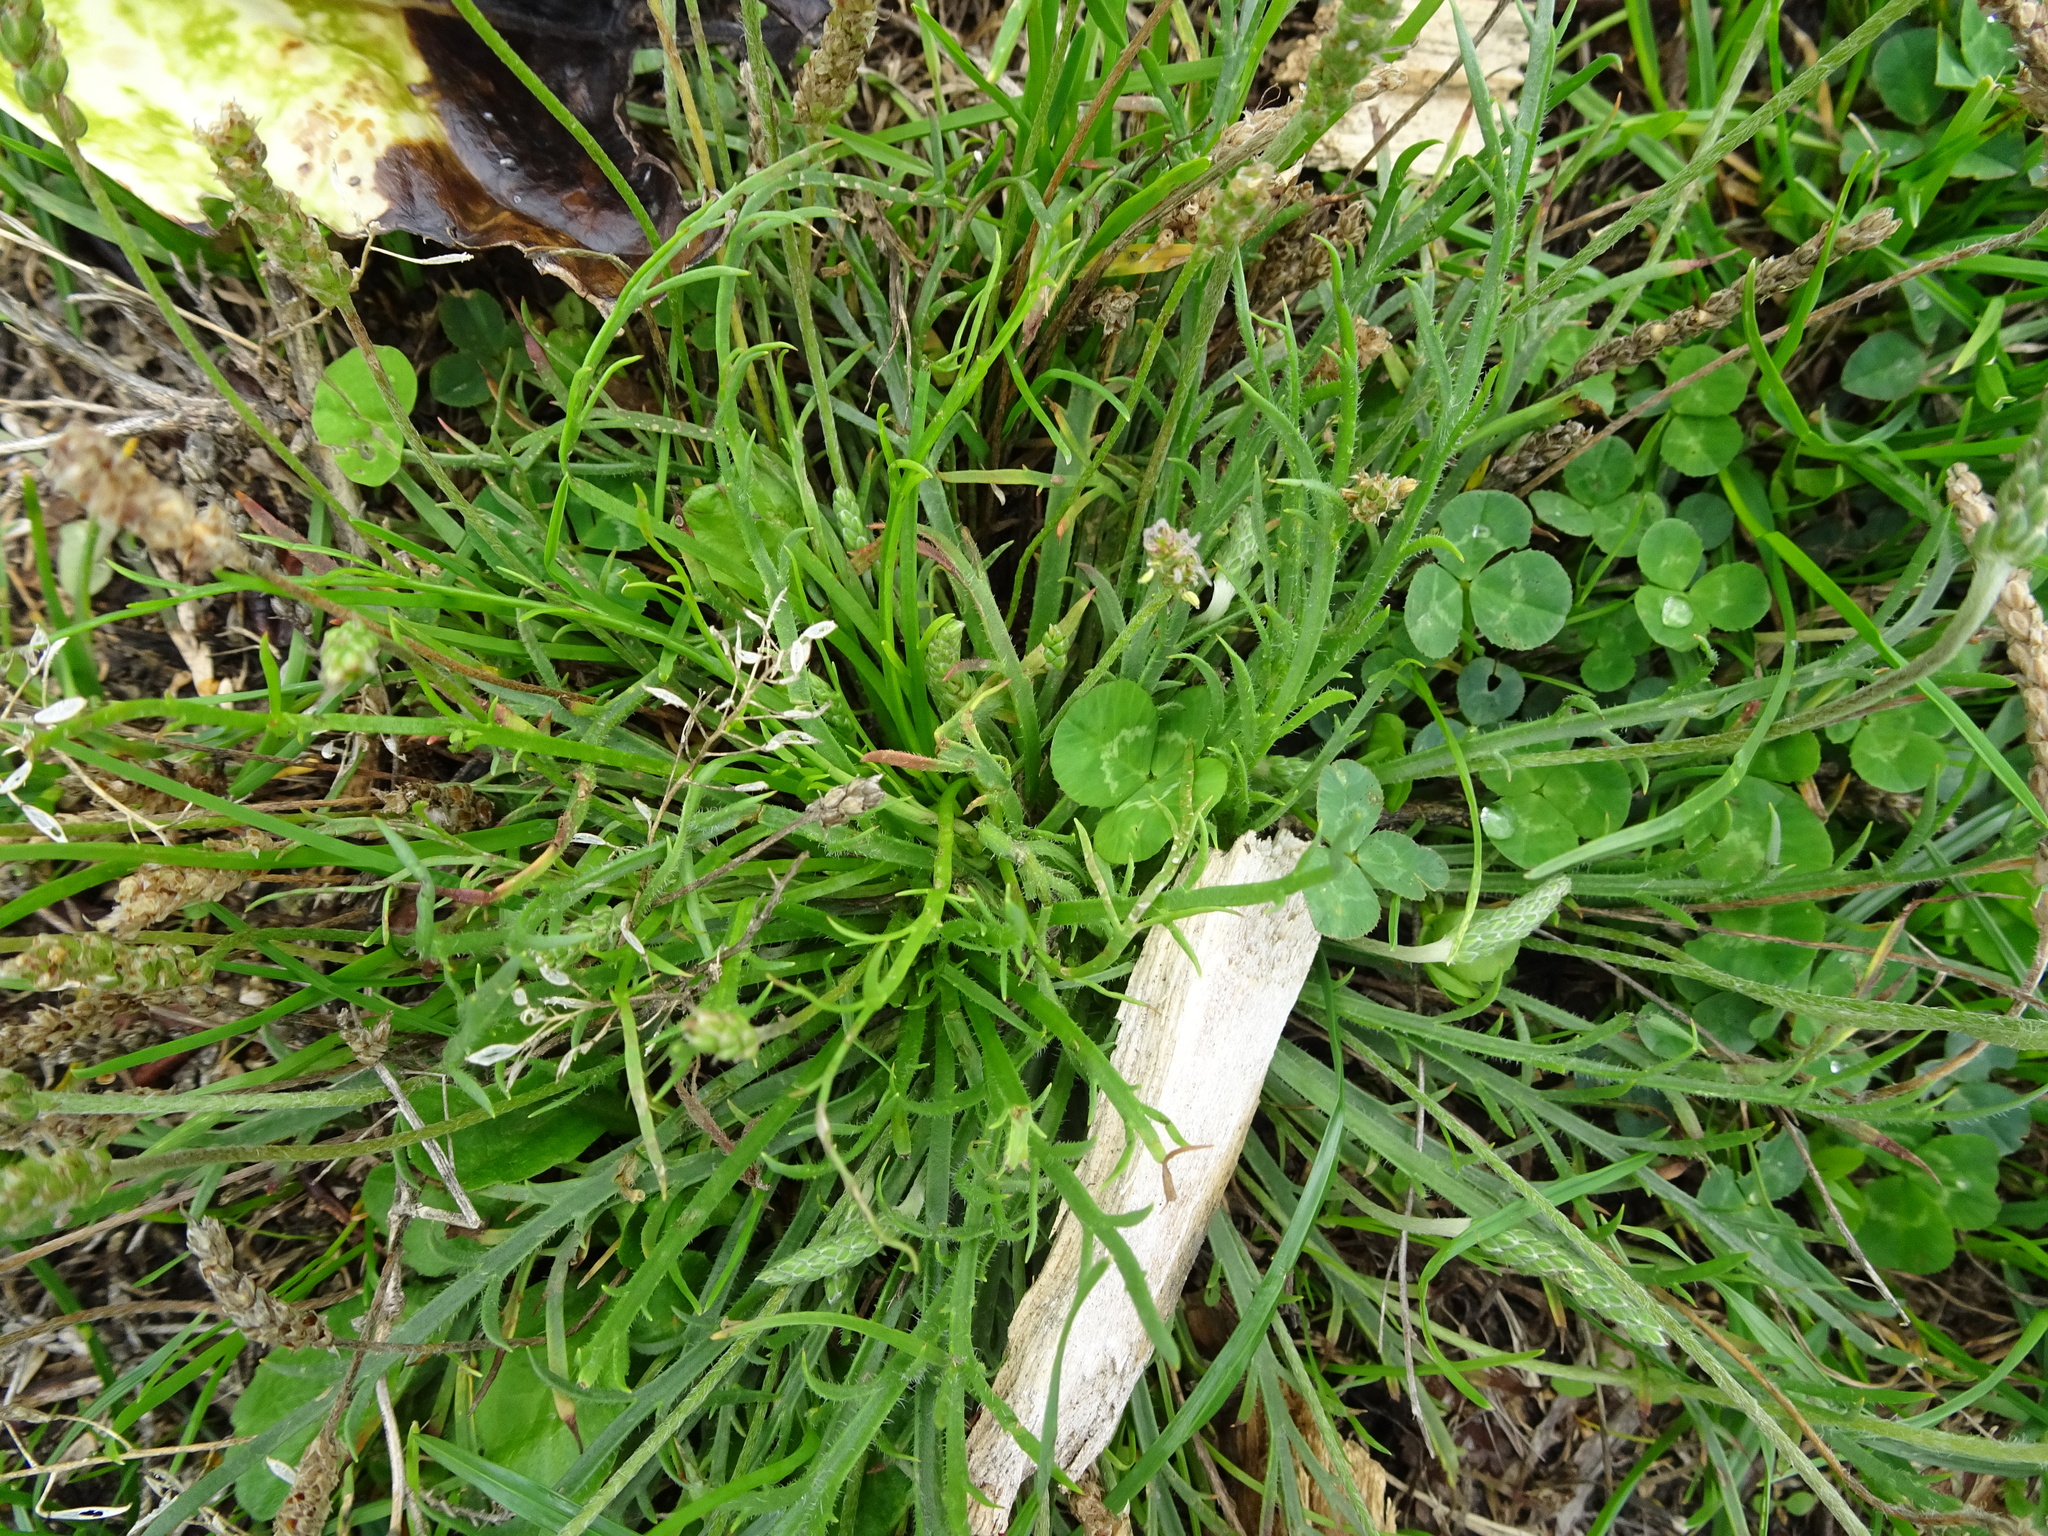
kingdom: Plantae
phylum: Tracheophyta
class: Magnoliopsida
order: Lamiales
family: Plantaginaceae
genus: Plantago
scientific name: Plantago coronopus
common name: Buck's-horn plantain
